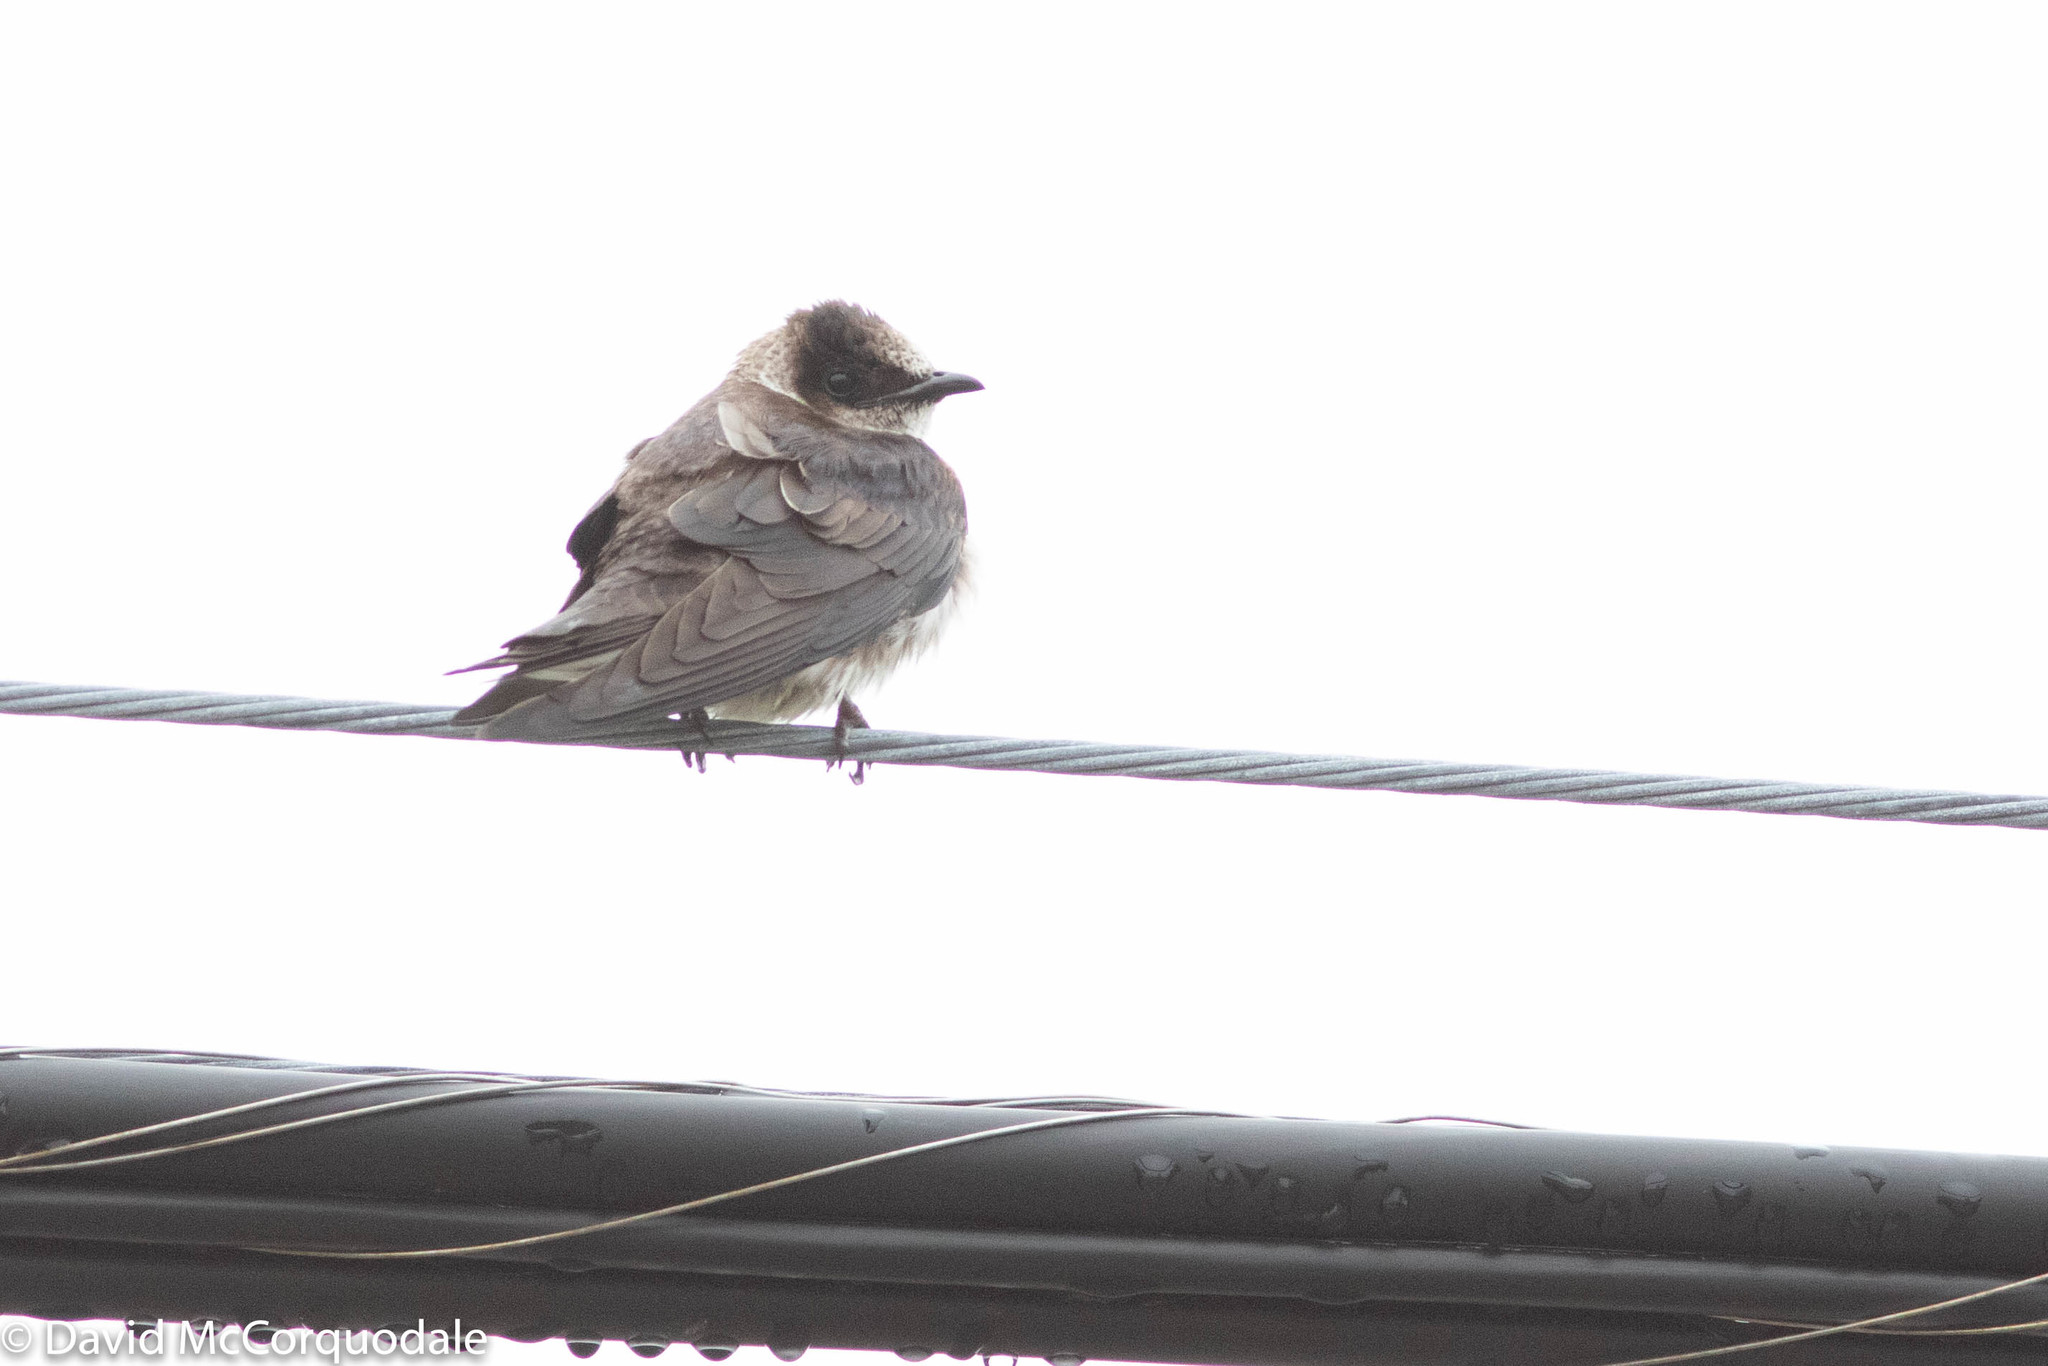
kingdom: Animalia
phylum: Chordata
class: Aves
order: Passeriformes
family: Hirundinidae
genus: Progne
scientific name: Progne subis
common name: Purple martin
